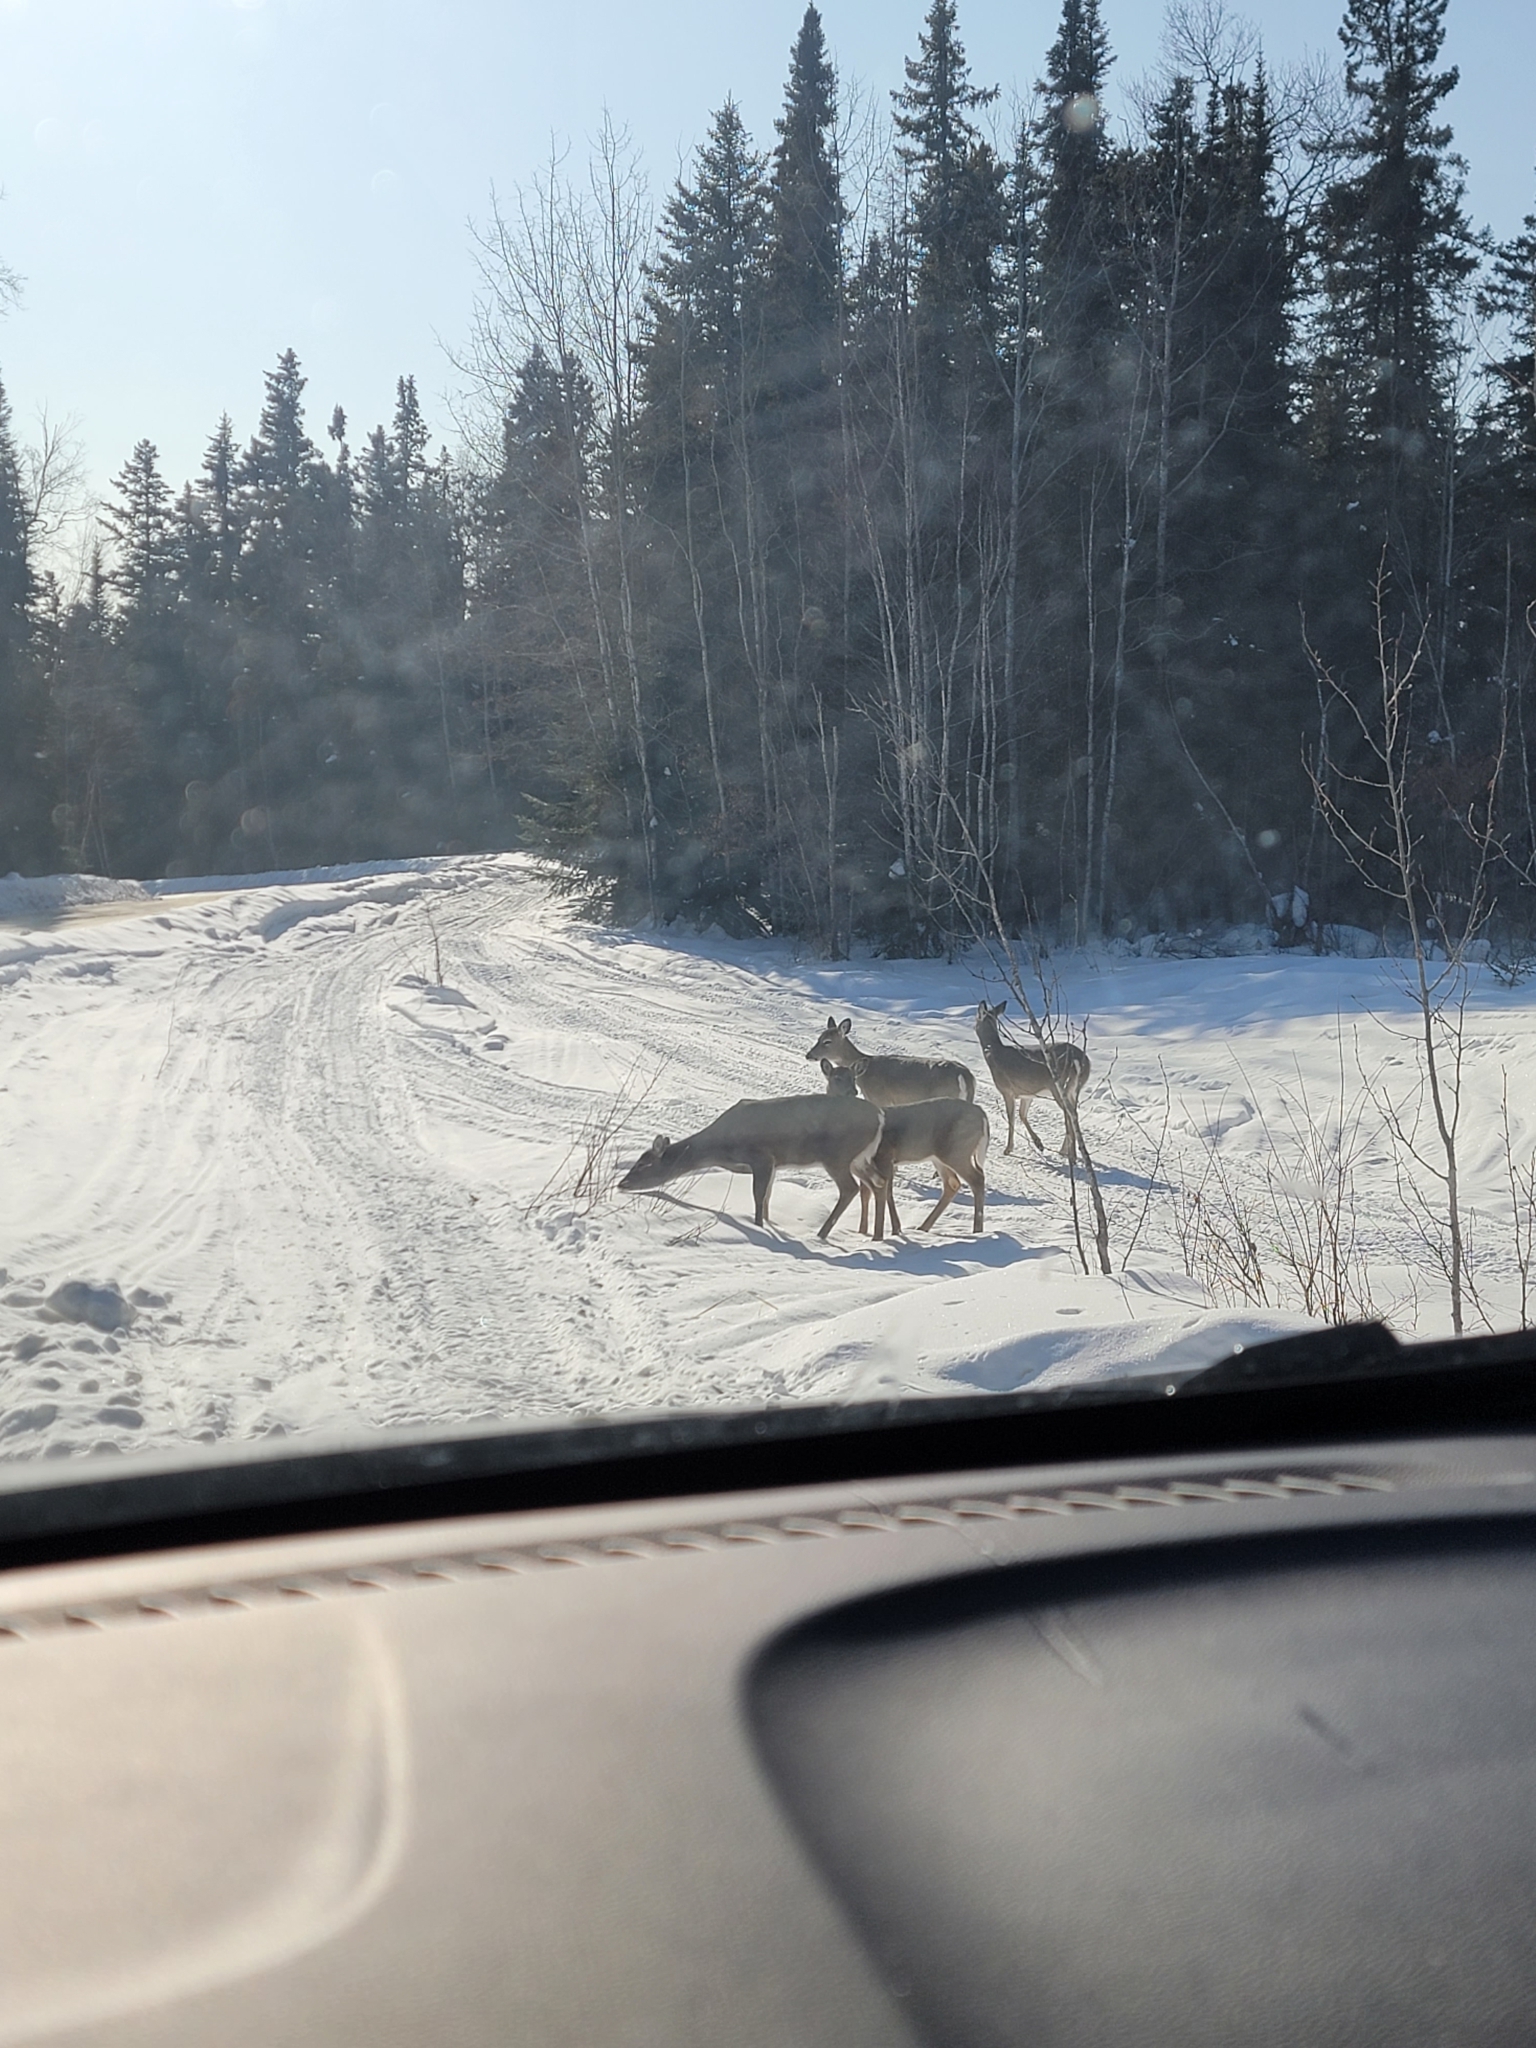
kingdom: Animalia
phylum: Chordata
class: Mammalia
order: Artiodactyla
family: Cervidae
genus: Odocoileus
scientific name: Odocoileus virginianus
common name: White-tailed deer
